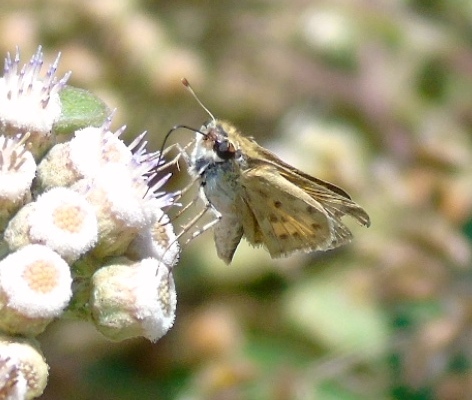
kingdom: Animalia
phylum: Arthropoda
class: Insecta
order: Lepidoptera
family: Hesperiidae
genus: Hylephila
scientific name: Hylephila phyleus
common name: Fiery skipper
